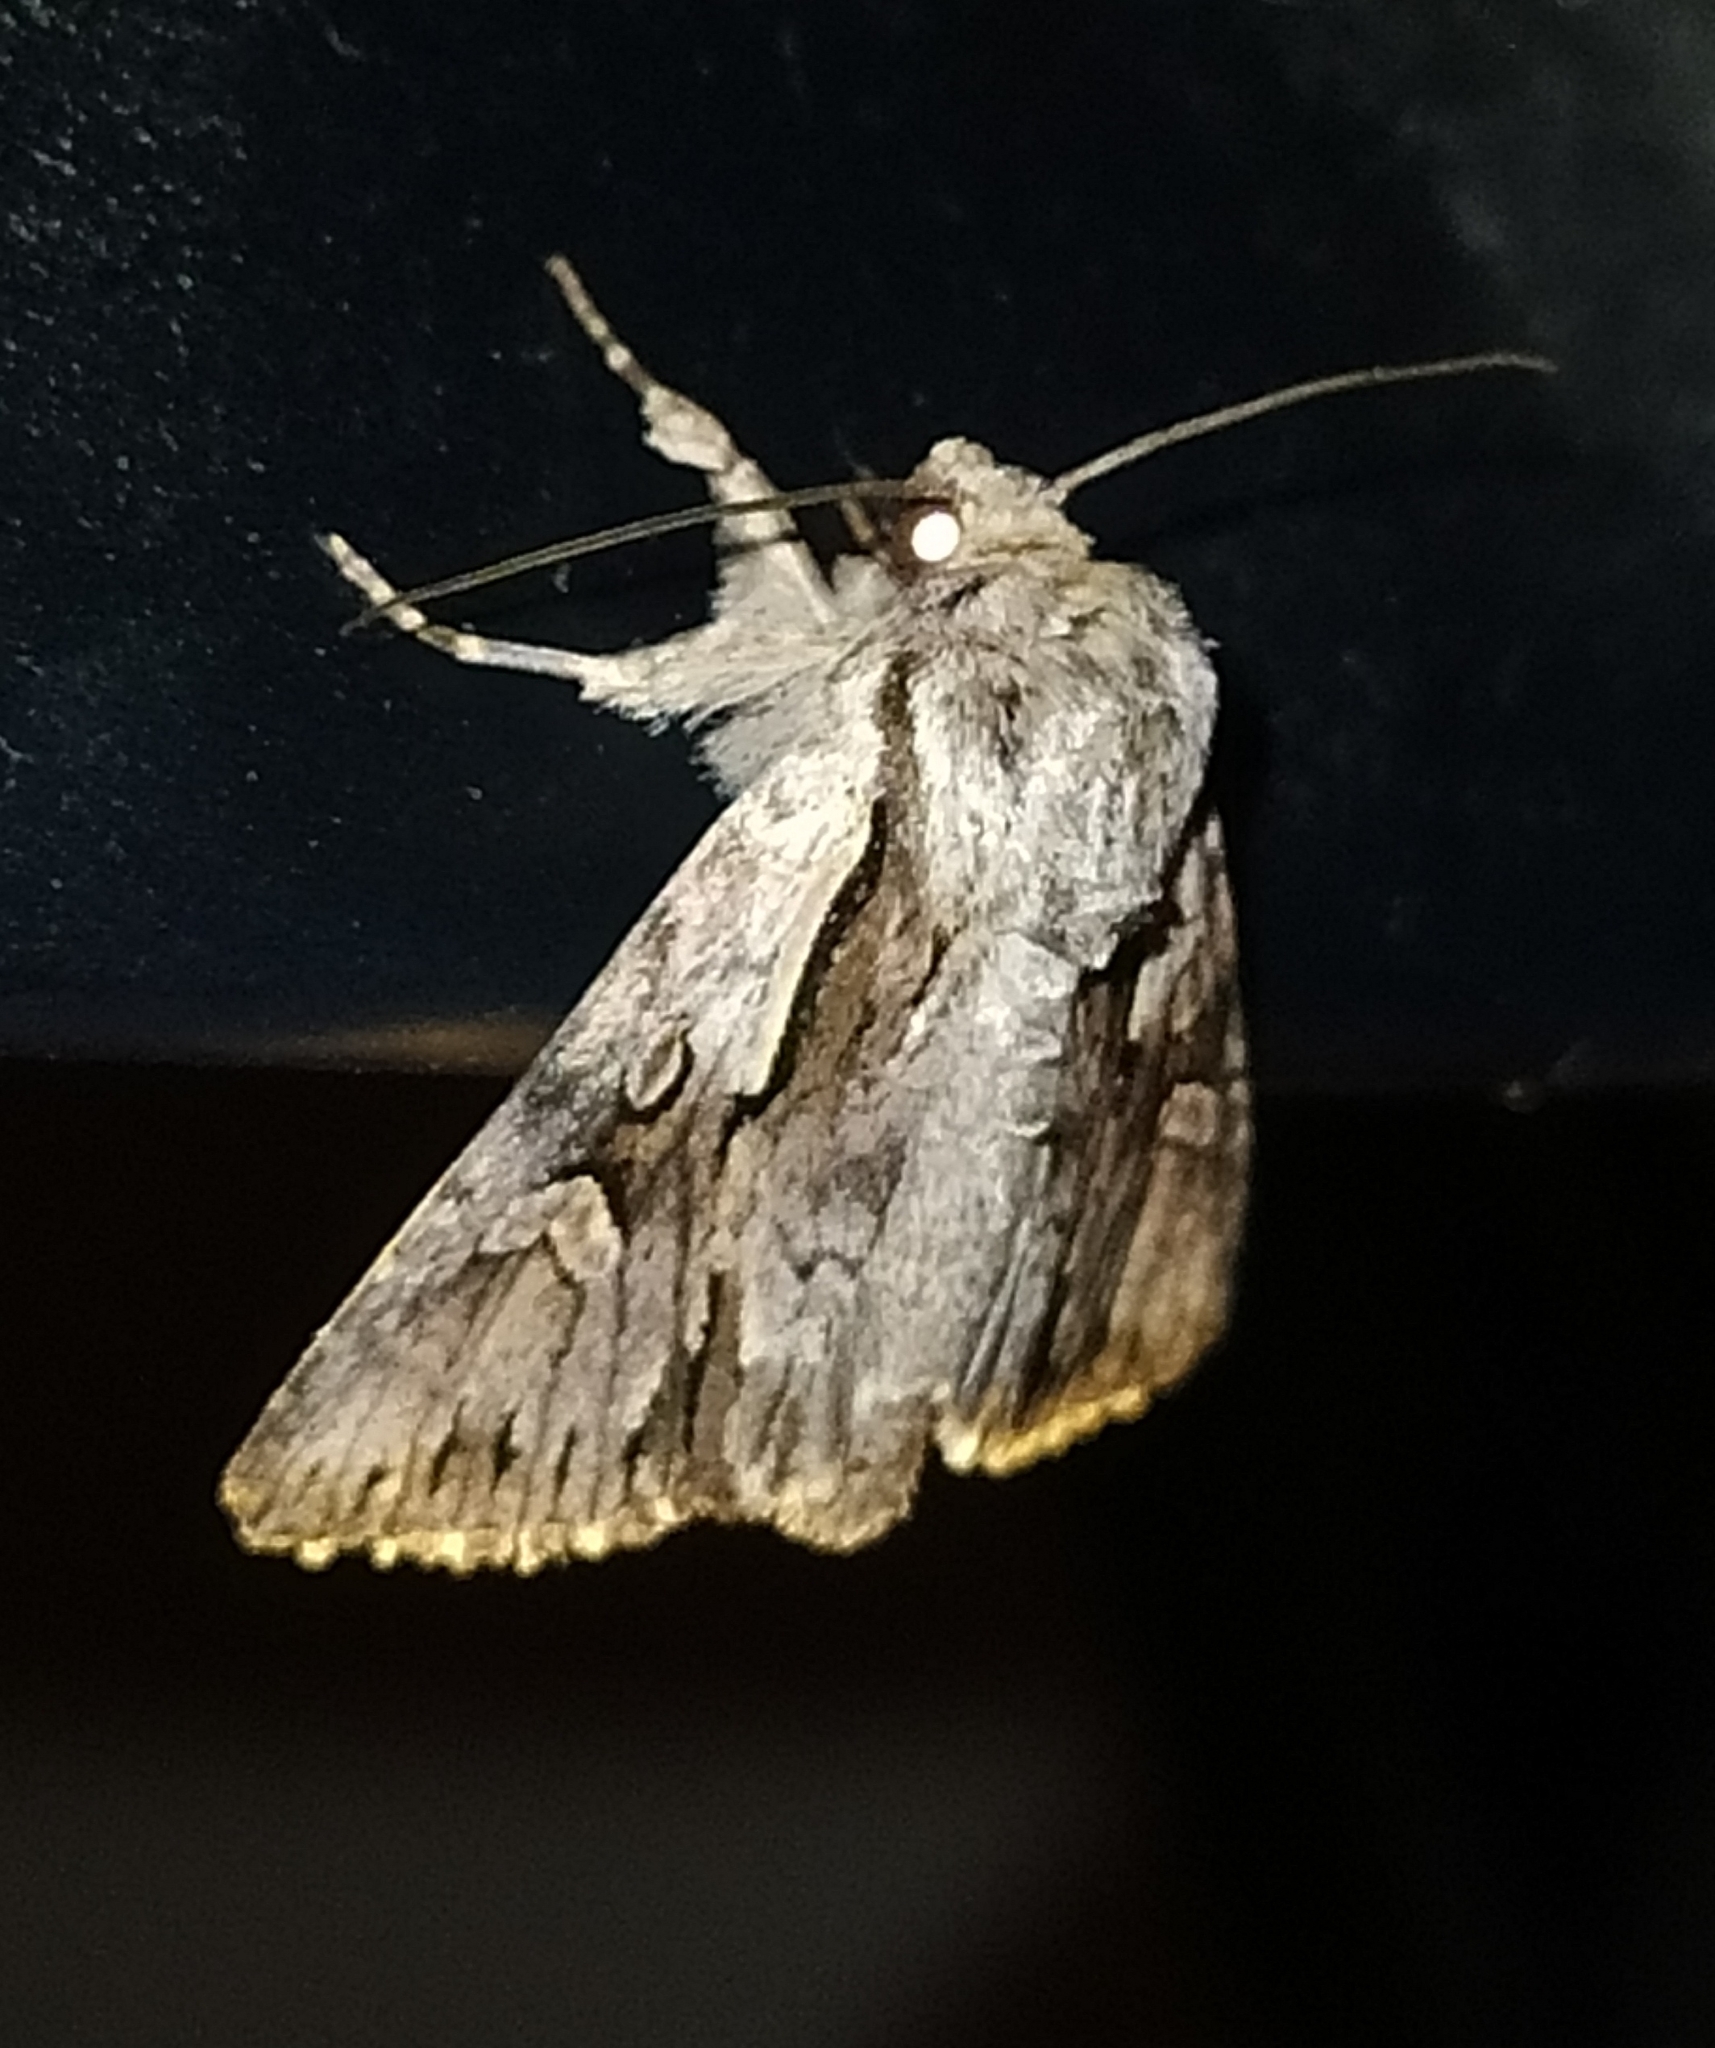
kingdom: Animalia
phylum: Arthropoda
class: Insecta
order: Lepidoptera
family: Noctuidae
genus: Chloantha
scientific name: Chloantha hyperici
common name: Pale-shouldered cloud
